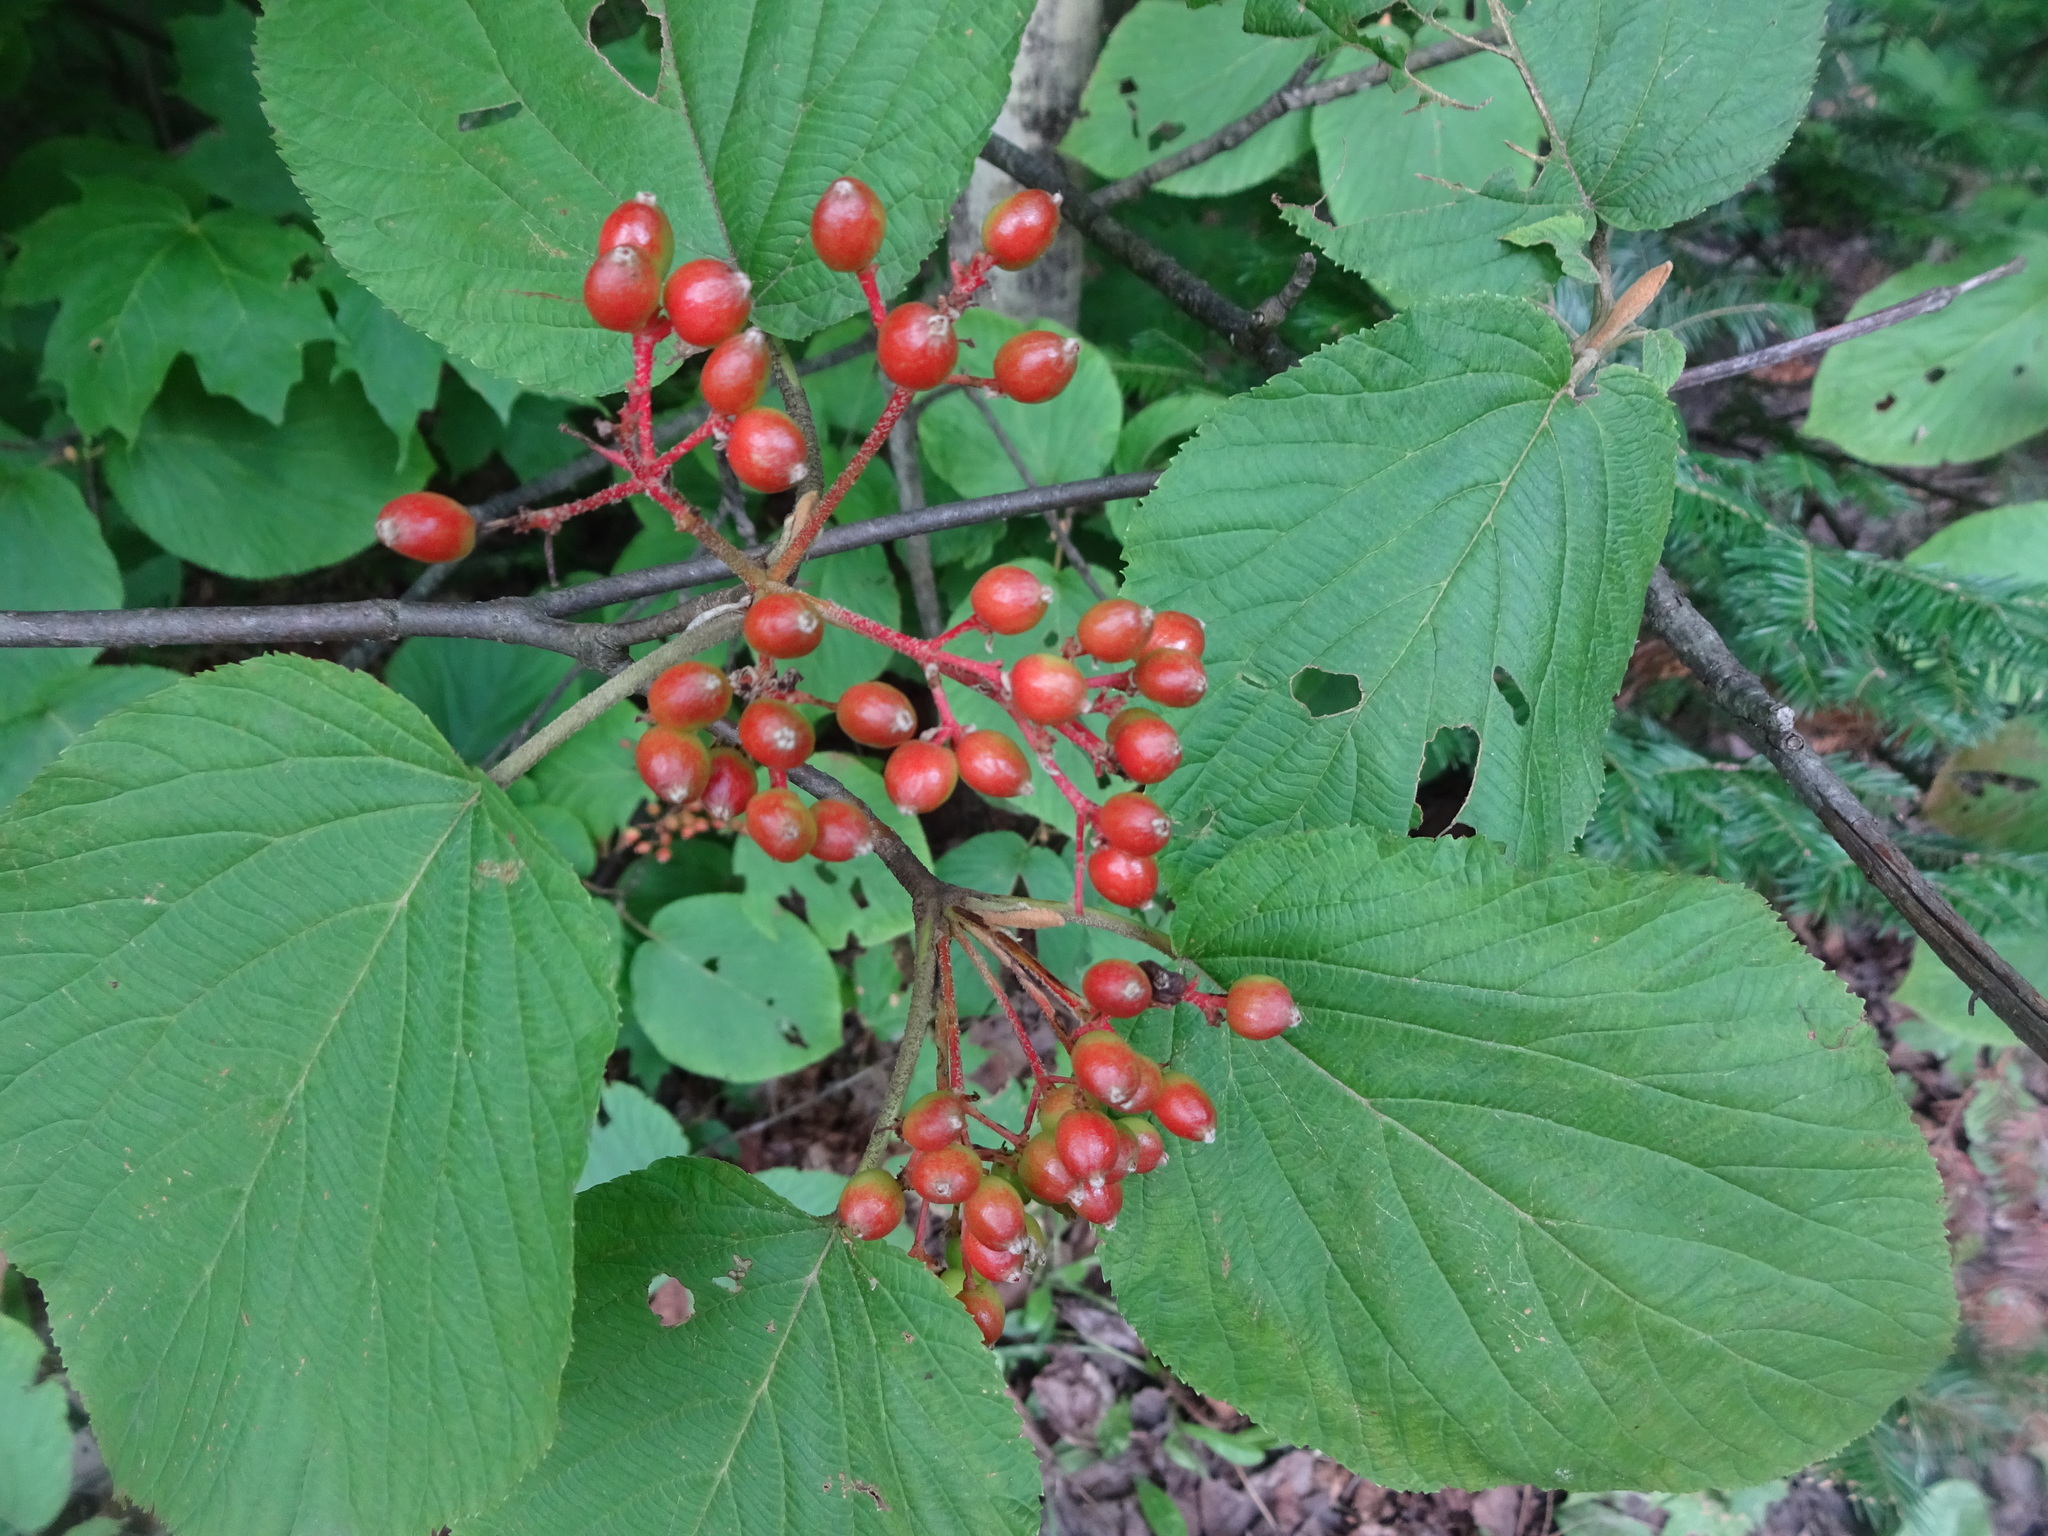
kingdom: Plantae
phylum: Tracheophyta
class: Magnoliopsida
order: Dipsacales
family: Viburnaceae
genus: Viburnum
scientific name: Viburnum lantanoides
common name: Hobblebush
